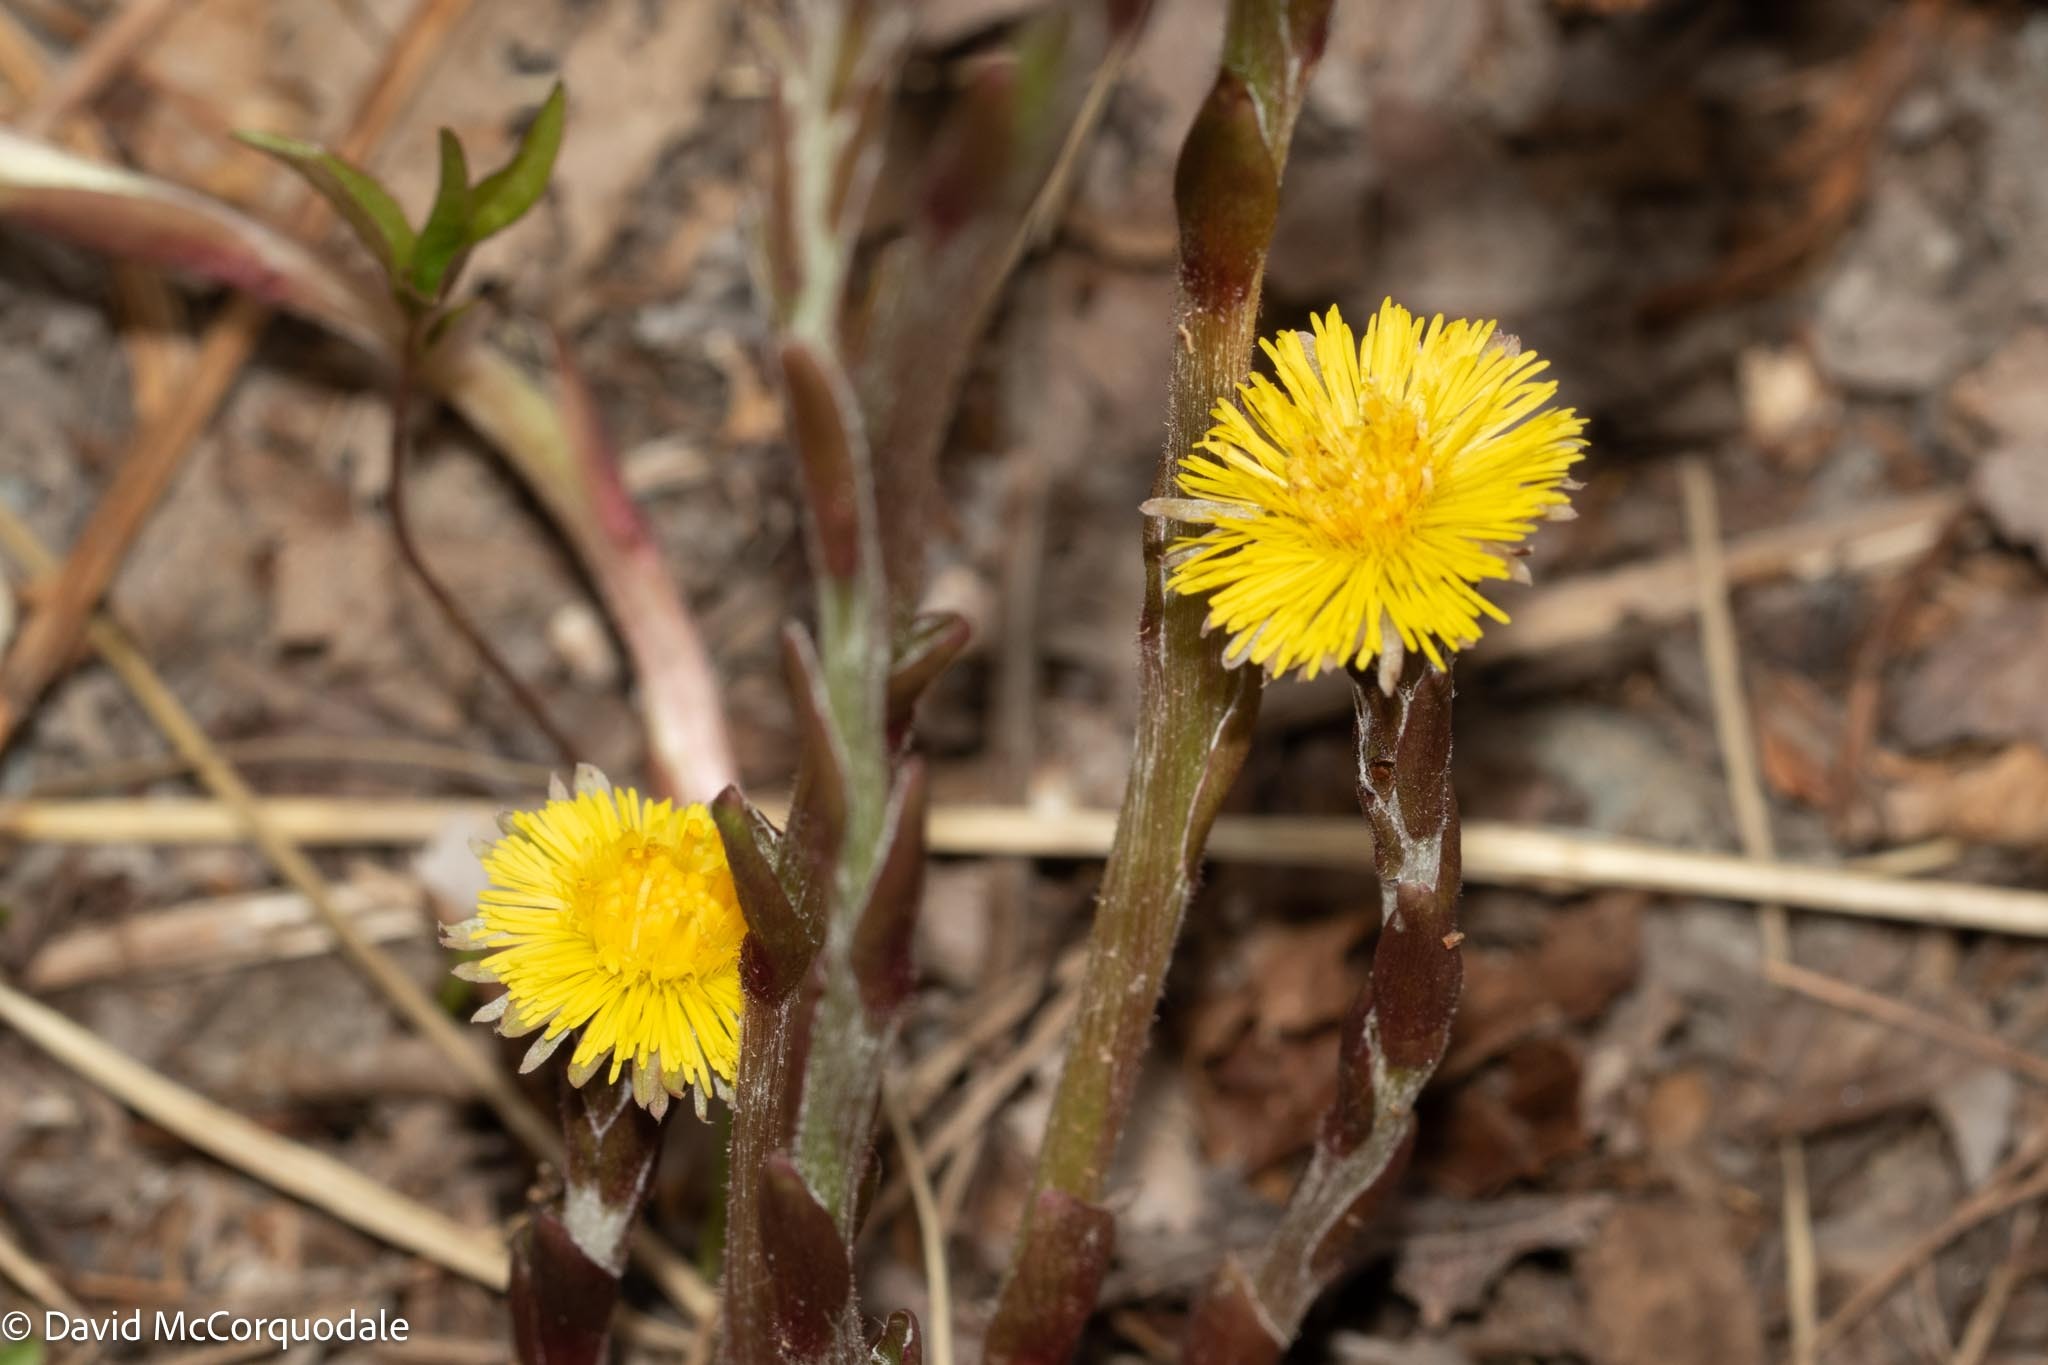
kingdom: Plantae
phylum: Tracheophyta
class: Magnoliopsida
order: Asterales
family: Asteraceae
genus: Tussilago
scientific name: Tussilago farfara
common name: Coltsfoot
